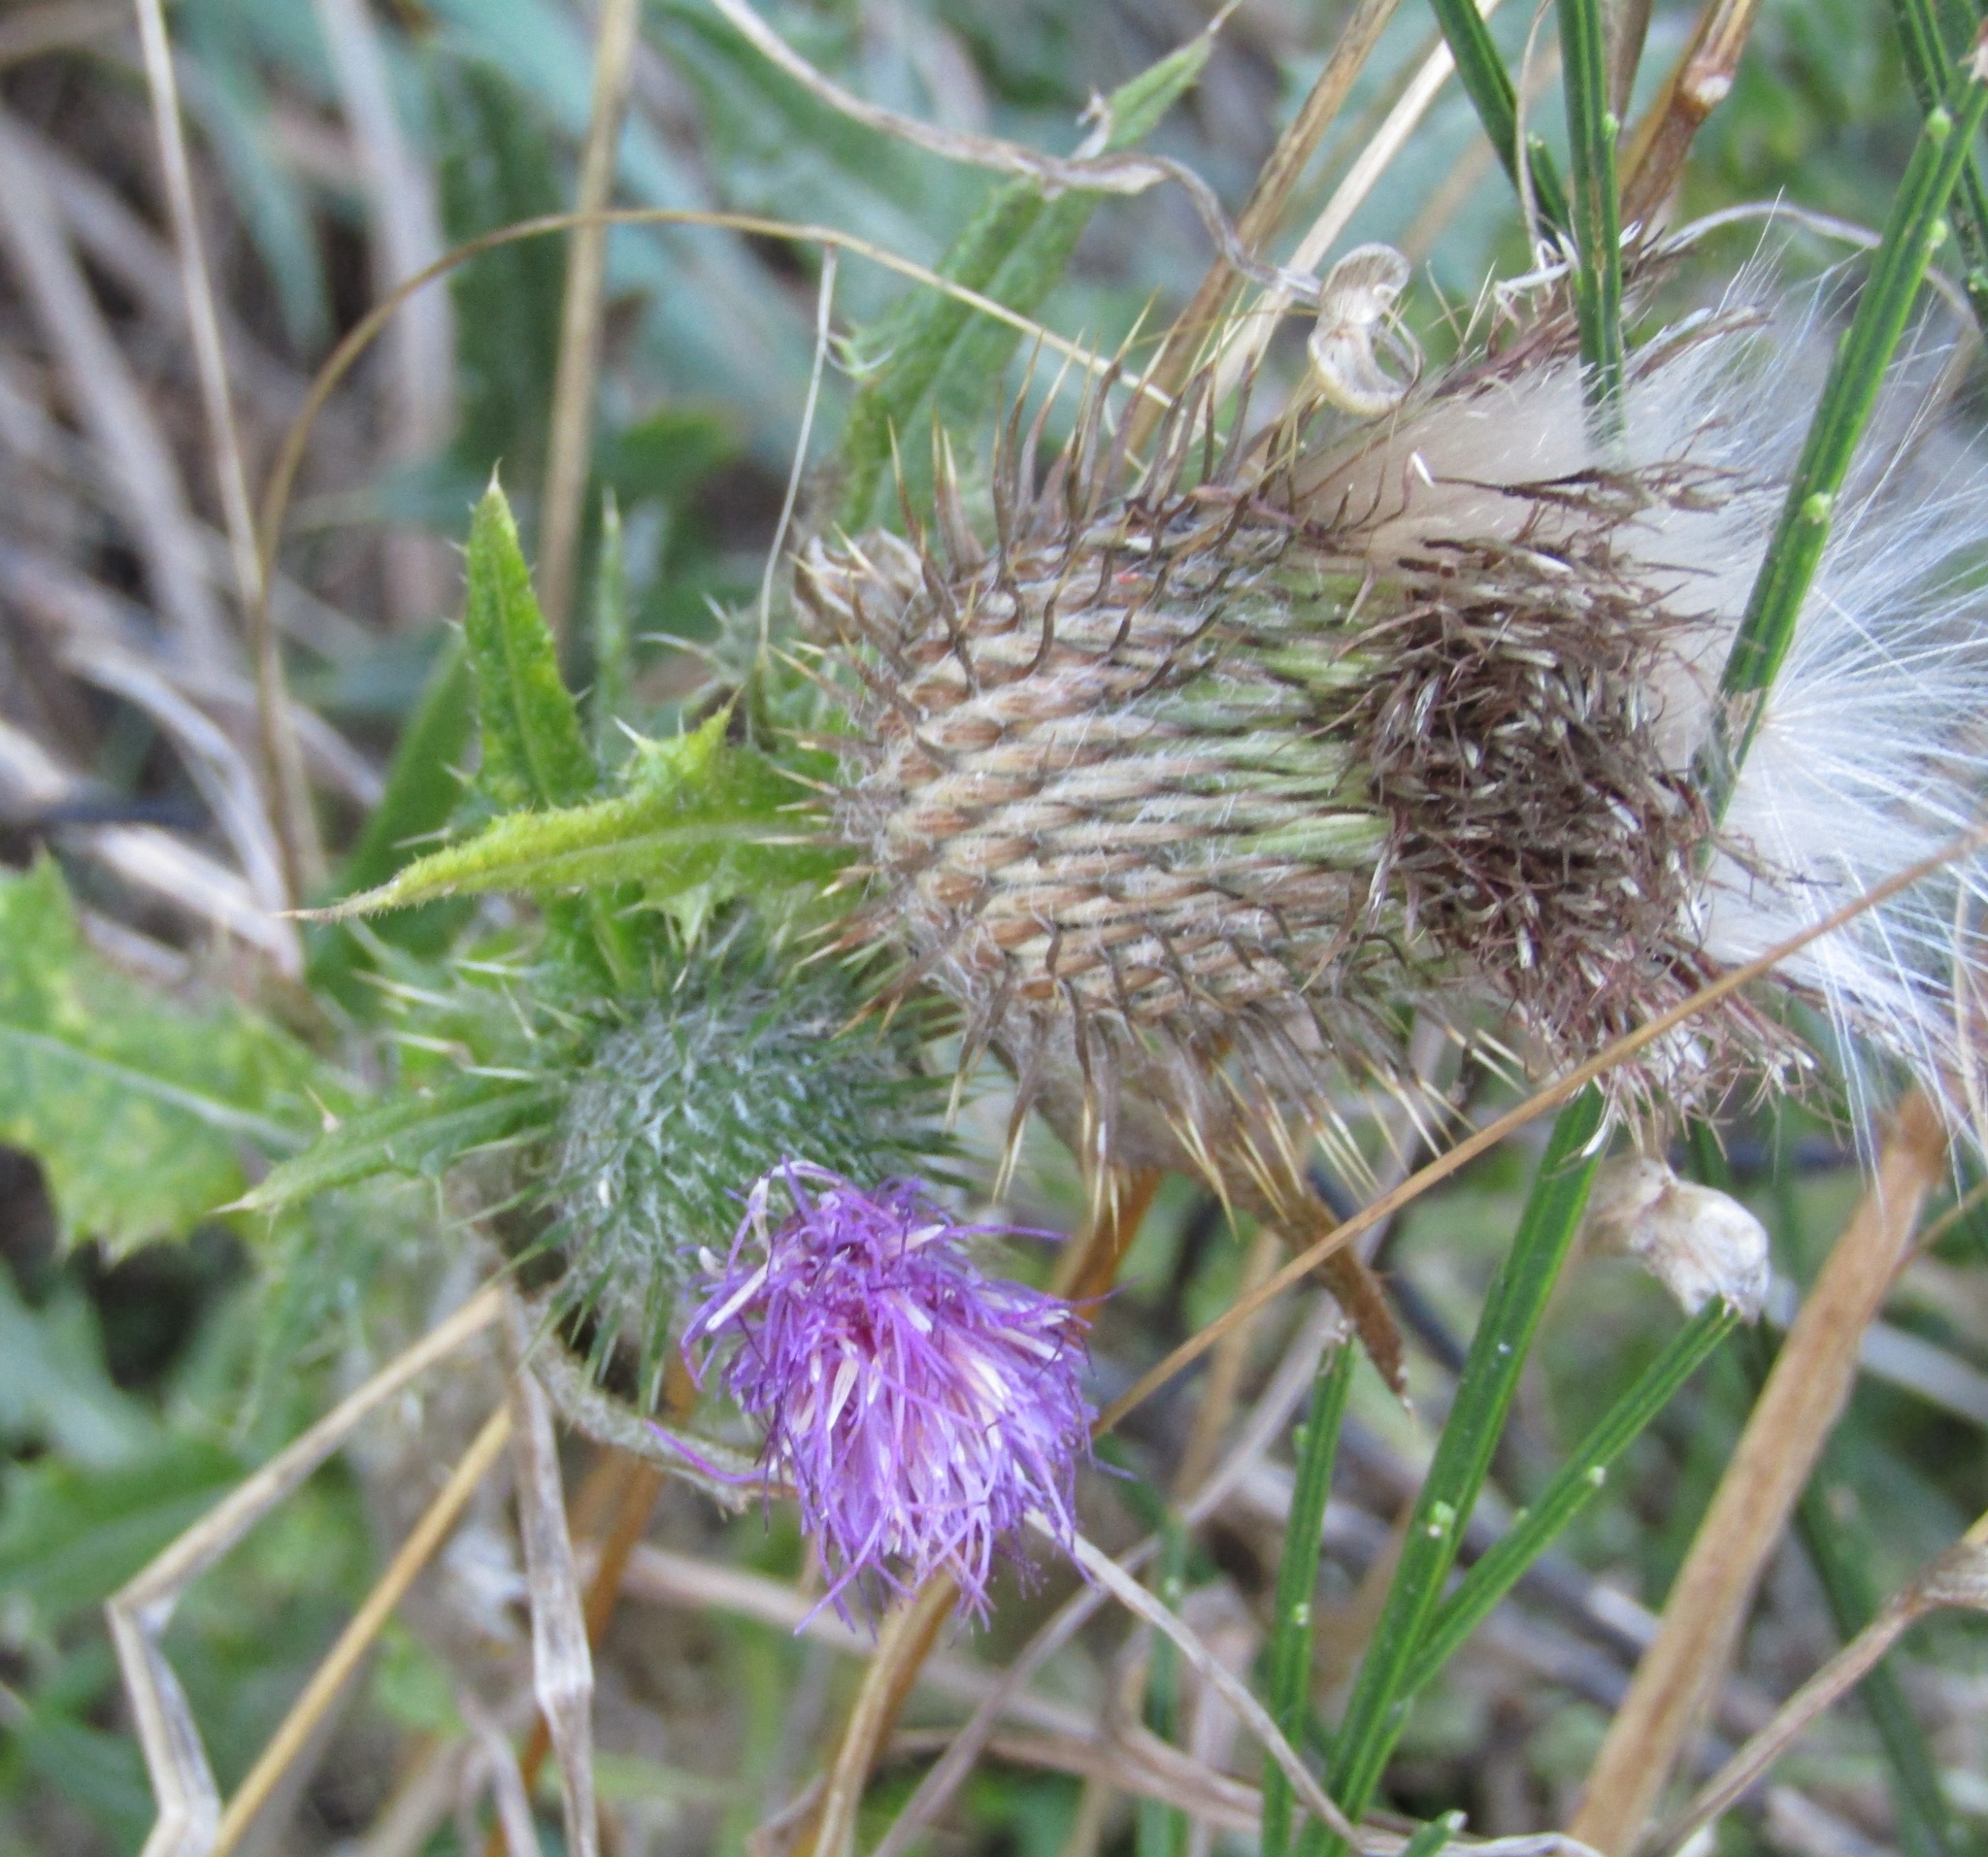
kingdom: Plantae
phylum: Tracheophyta
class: Magnoliopsida
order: Asterales
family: Asteraceae
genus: Cirsium
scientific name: Cirsium vulgare
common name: Bull thistle
